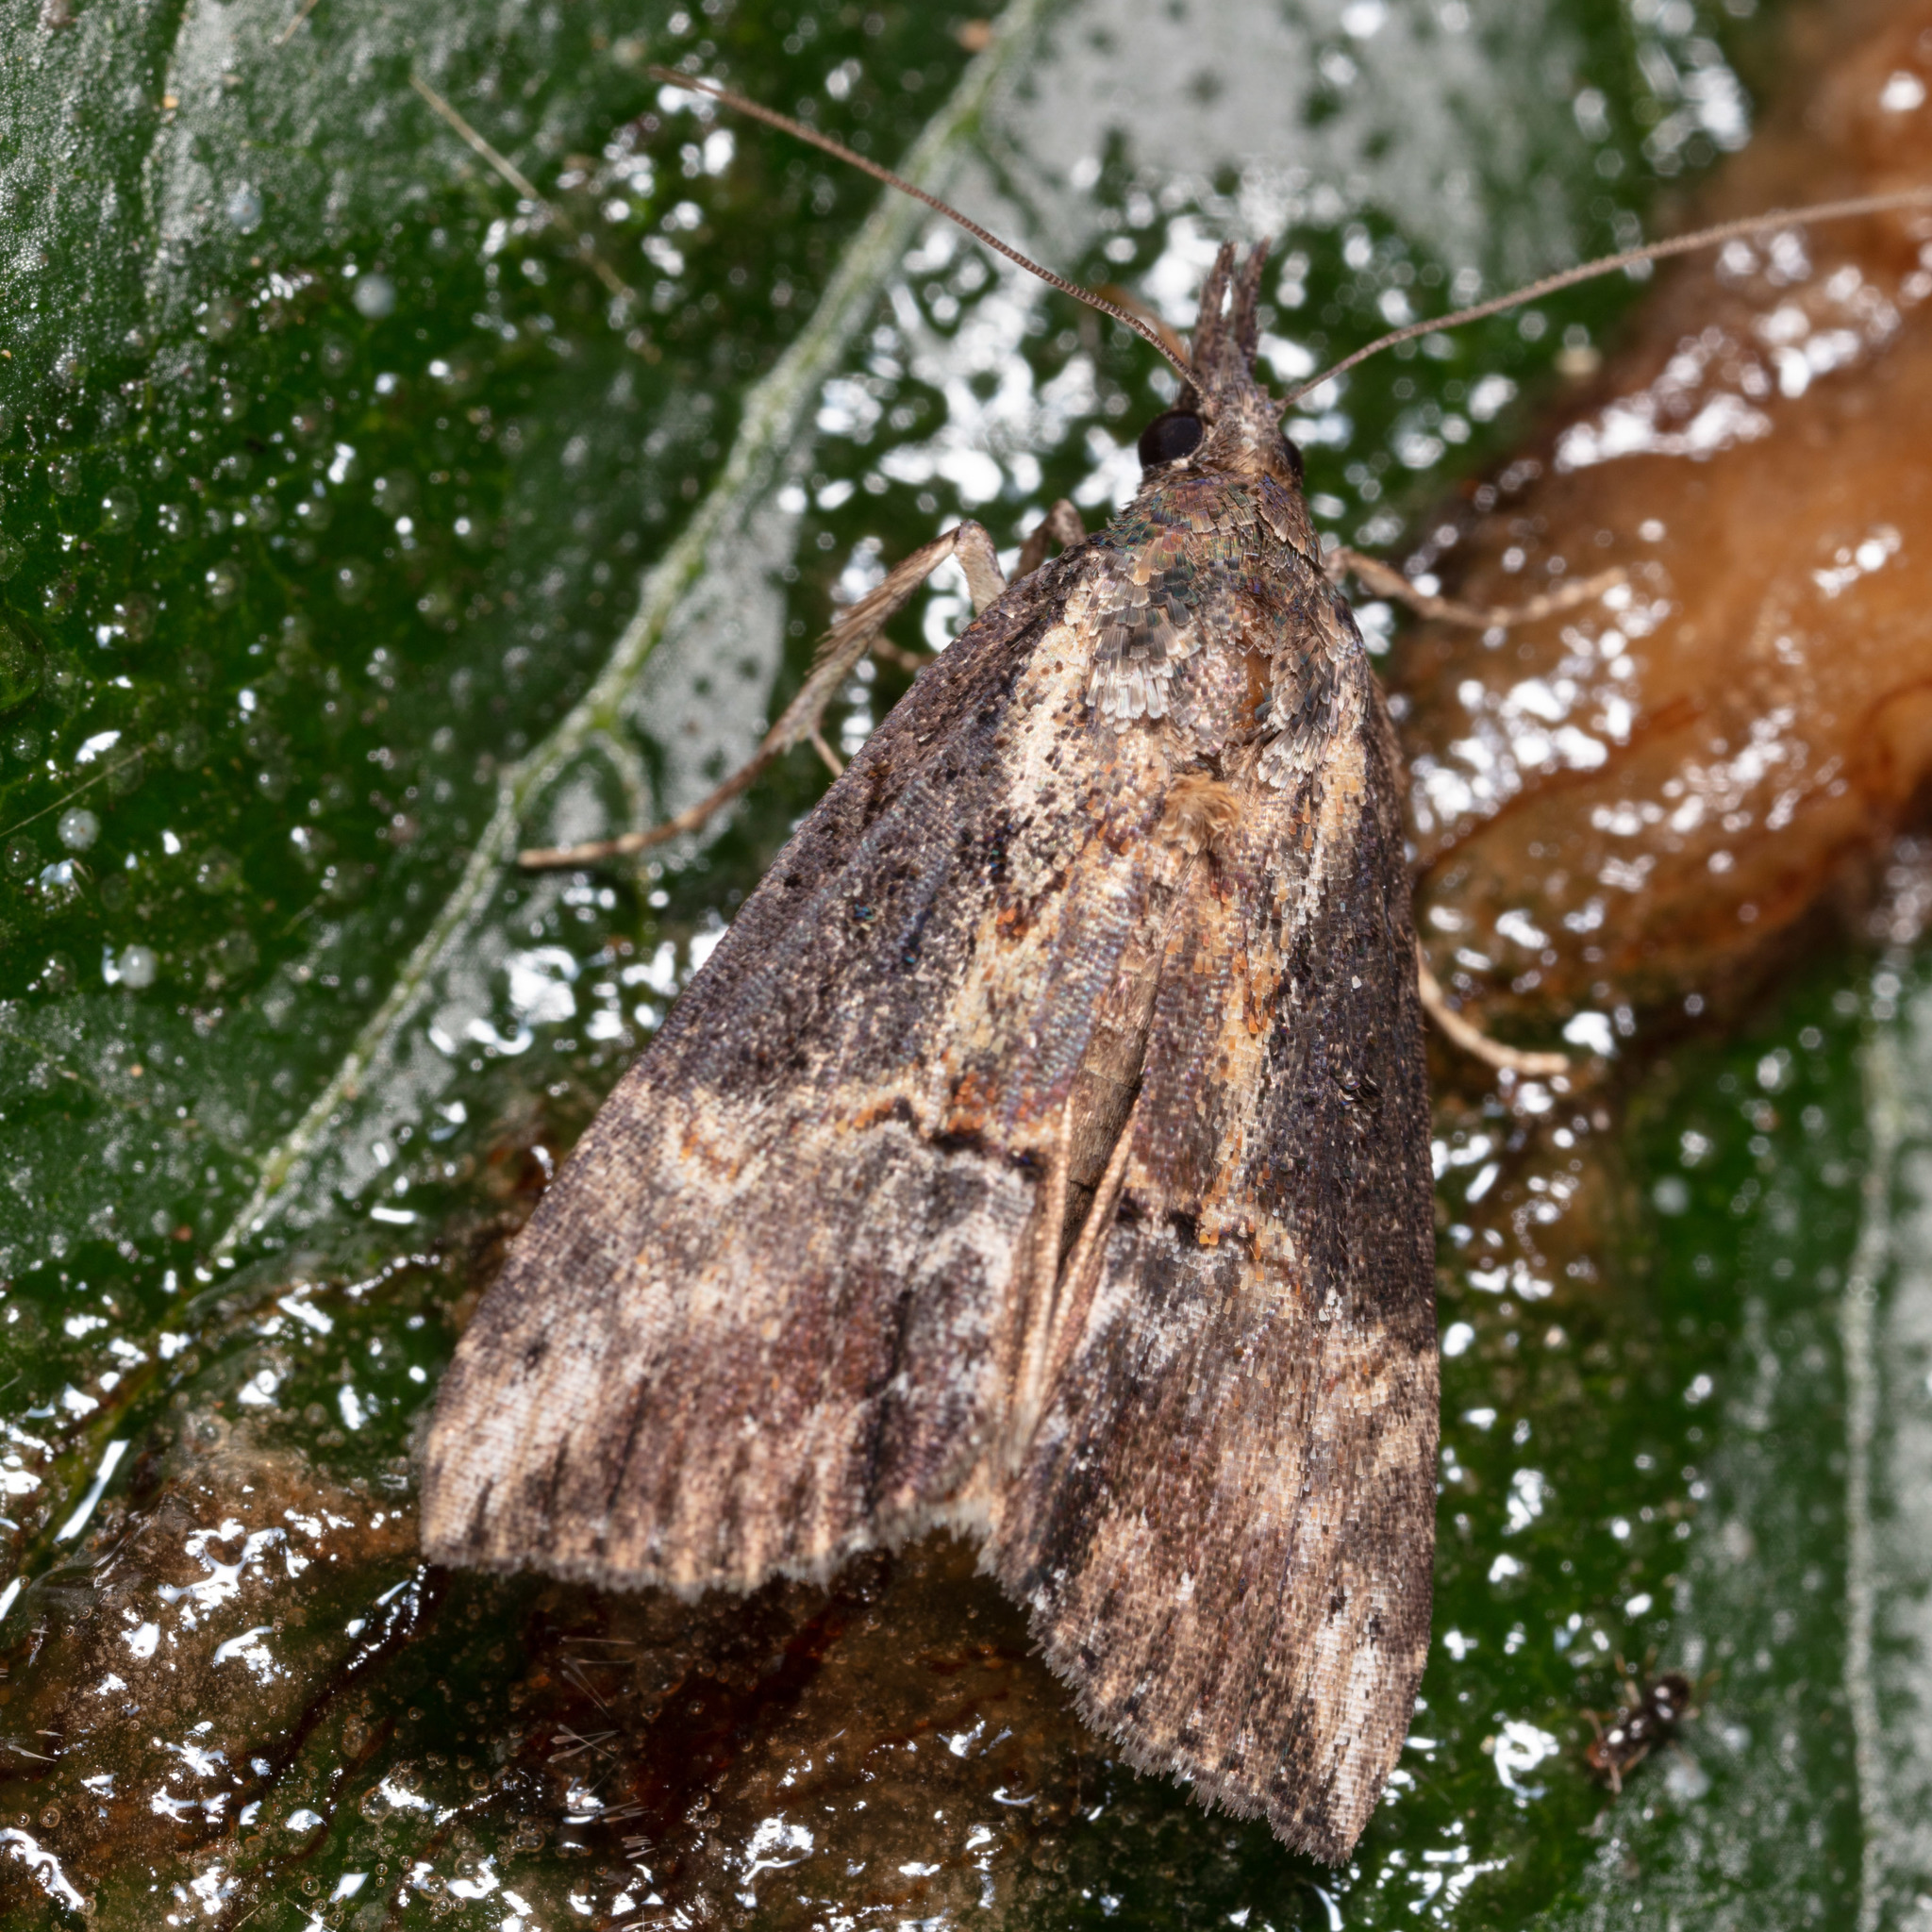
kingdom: Animalia
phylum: Arthropoda
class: Insecta
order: Lepidoptera
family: Erebidae
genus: Hypena
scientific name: Hypena scabra
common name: Green cloverworm
